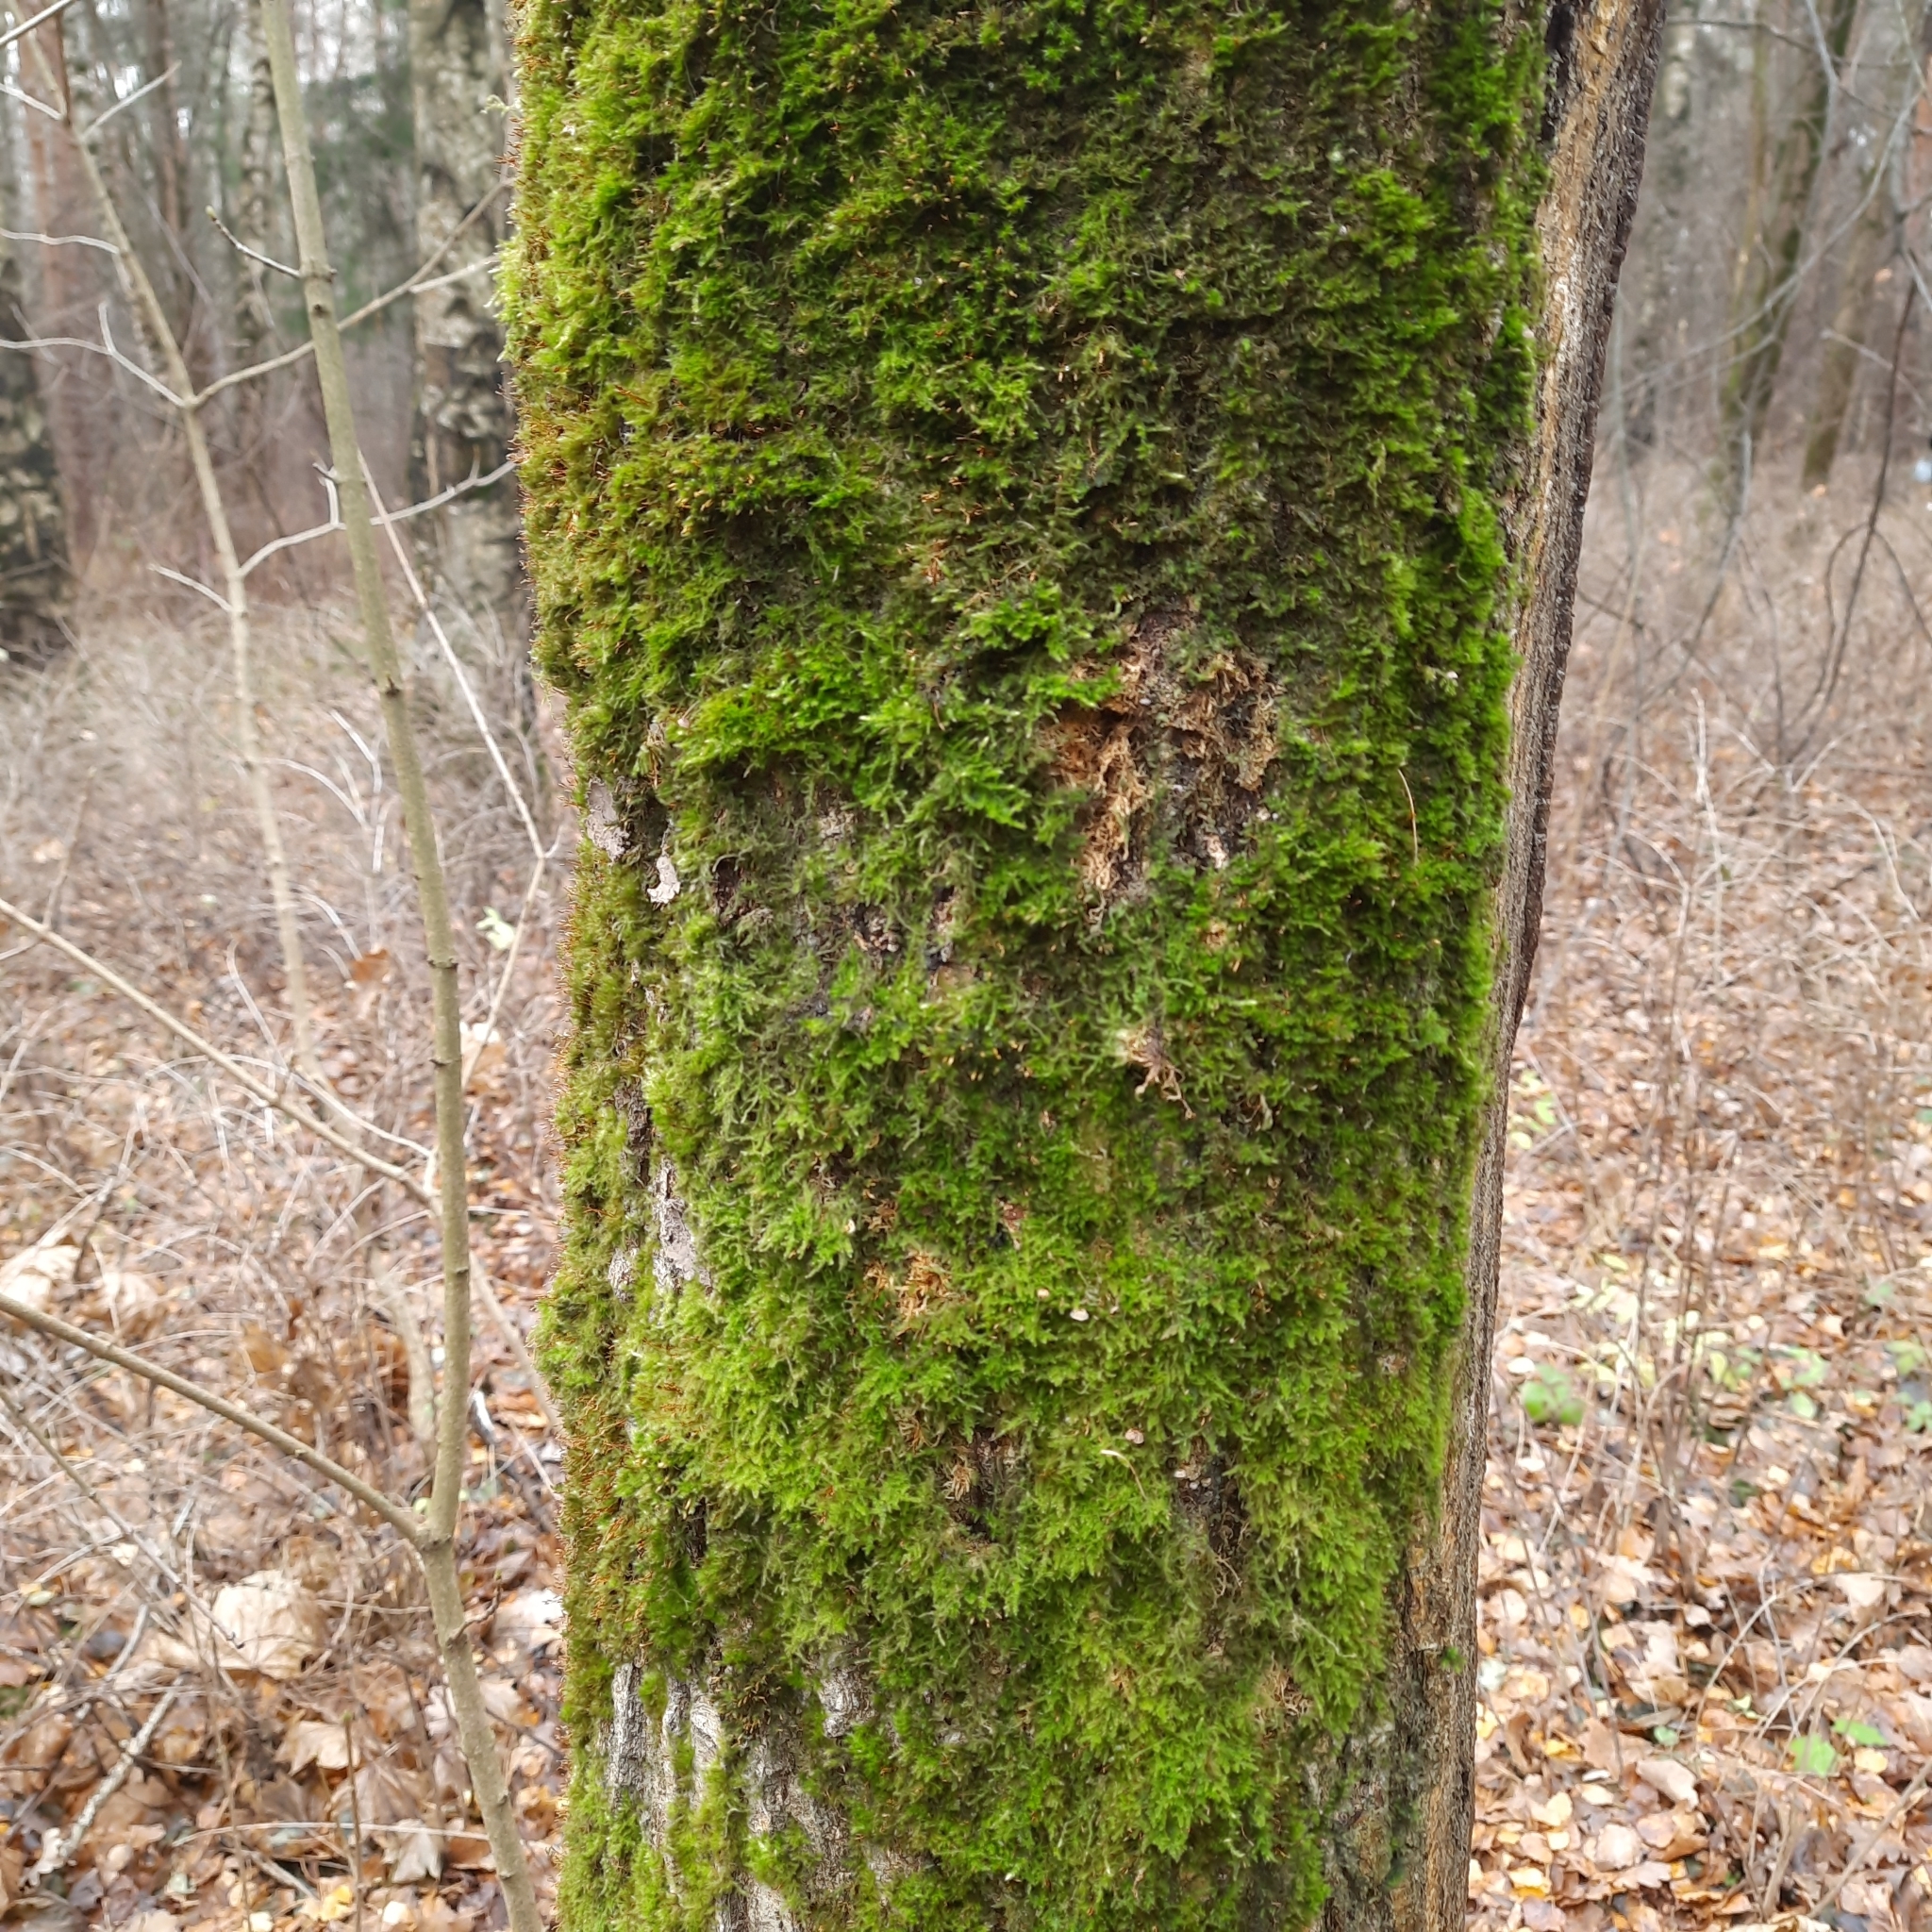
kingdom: Plantae
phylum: Bryophyta
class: Bryopsida
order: Hypnales
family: Pylaisiaceae
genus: Pylaisia
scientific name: Pylaisia polyantha
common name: Many-flowered leskea
